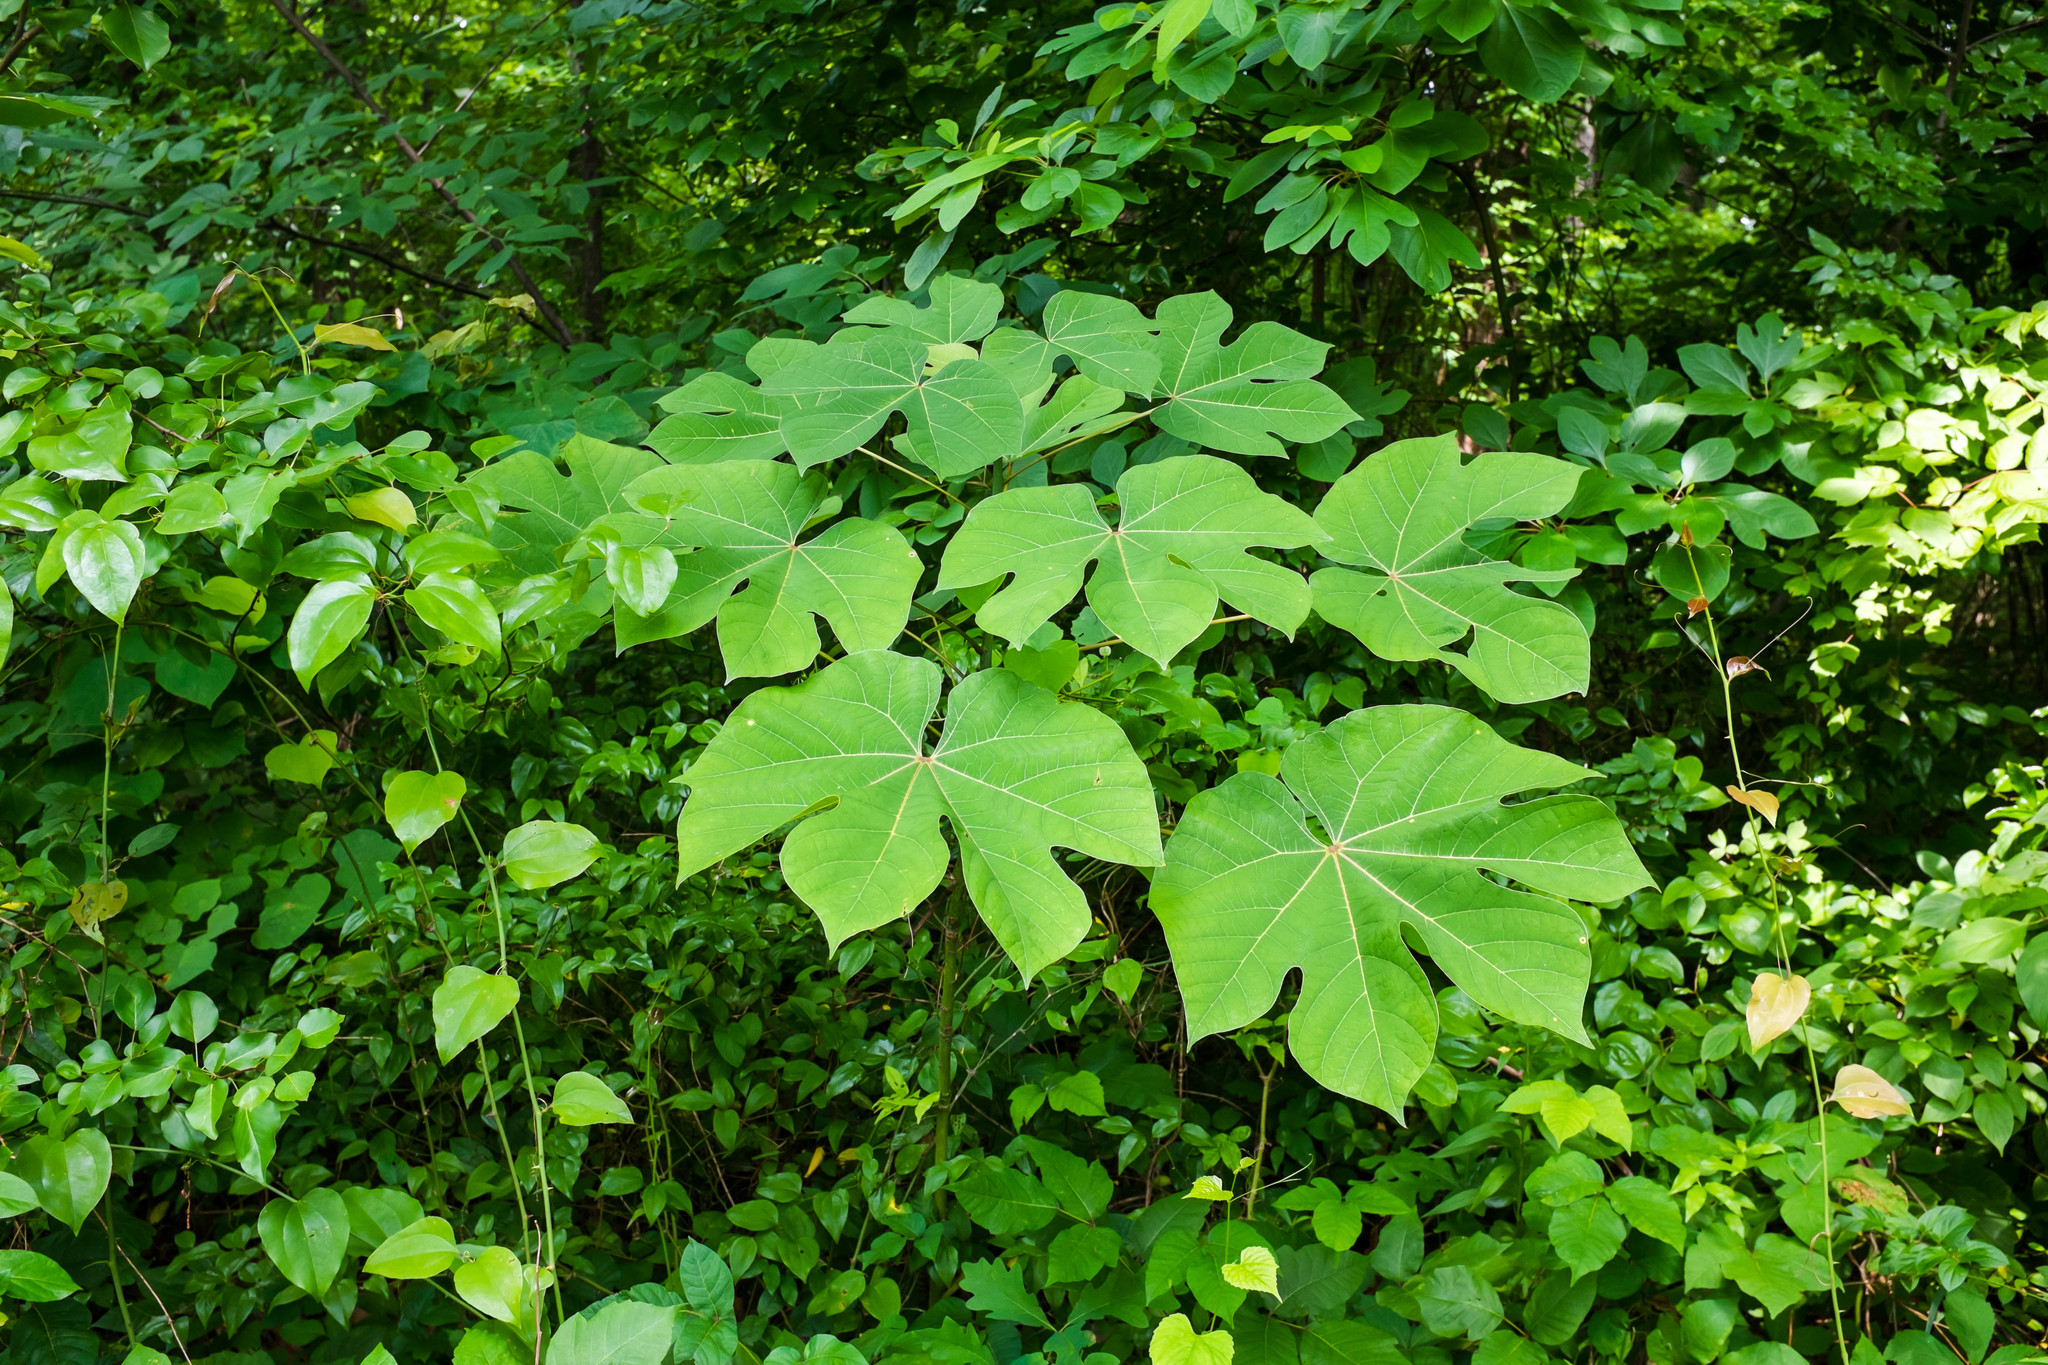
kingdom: Plantae
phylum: Tracheophyta
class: Magnoliopsida
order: Malvales
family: Malvaceae
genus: Firmiana
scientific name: Firmiana simplex
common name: Chinese parasoltree
